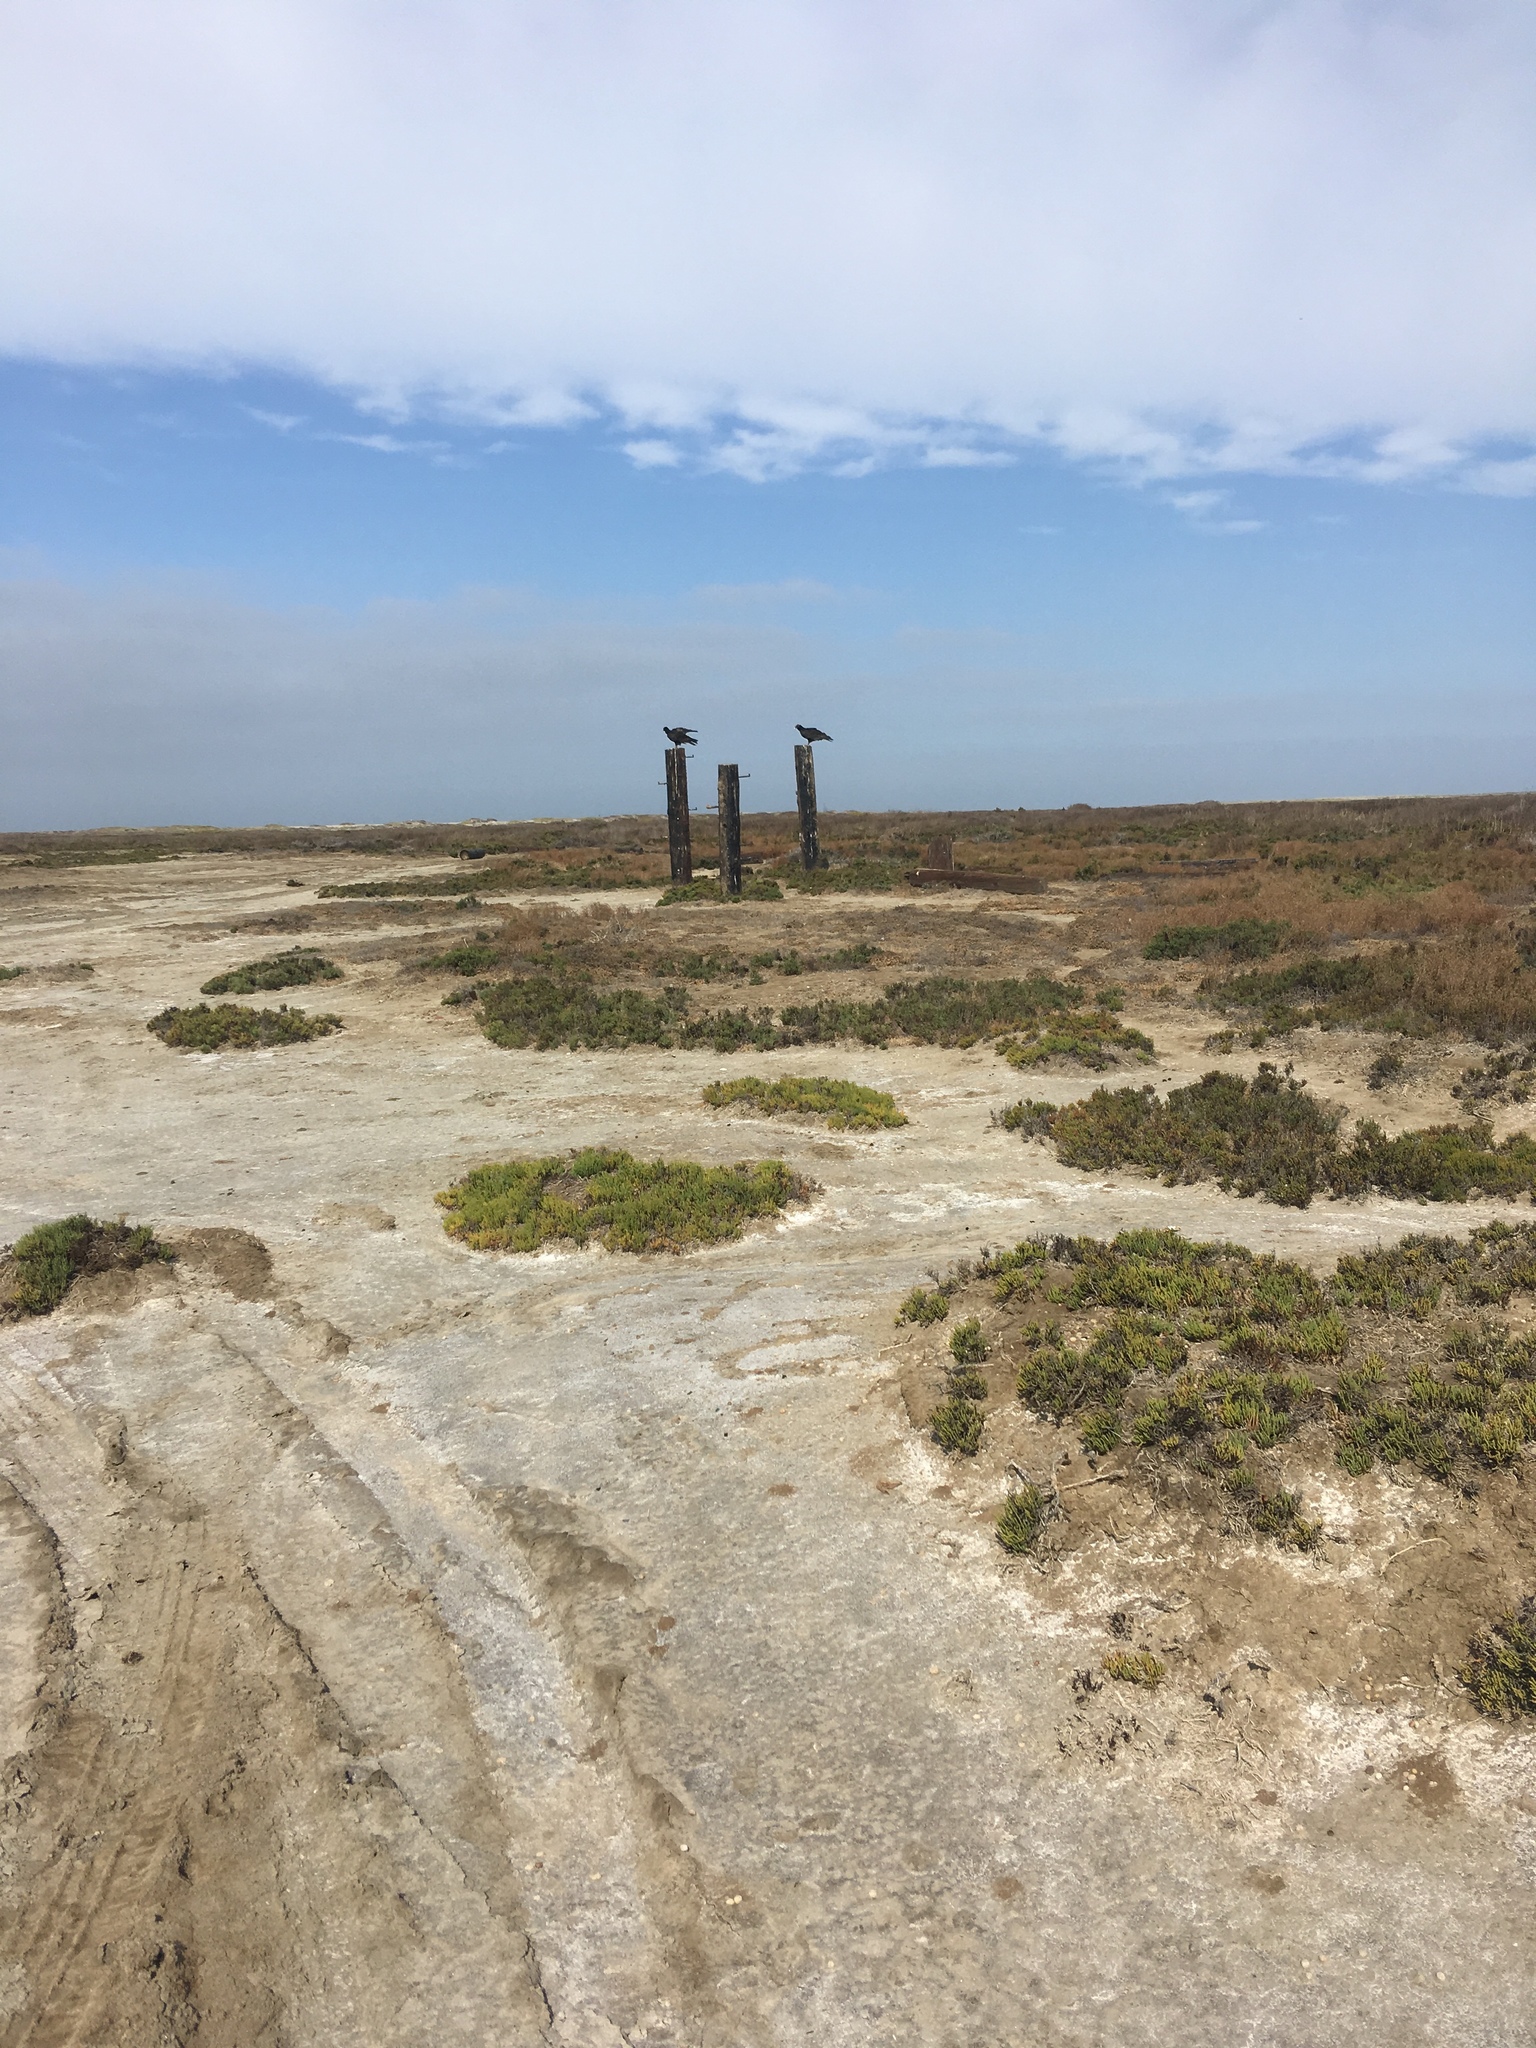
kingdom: Animalia
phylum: Chordata
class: Aves
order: Accipitriformes
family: Cathartidae
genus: Cathartes
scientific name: Cathartes aura
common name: Turkey vulture
